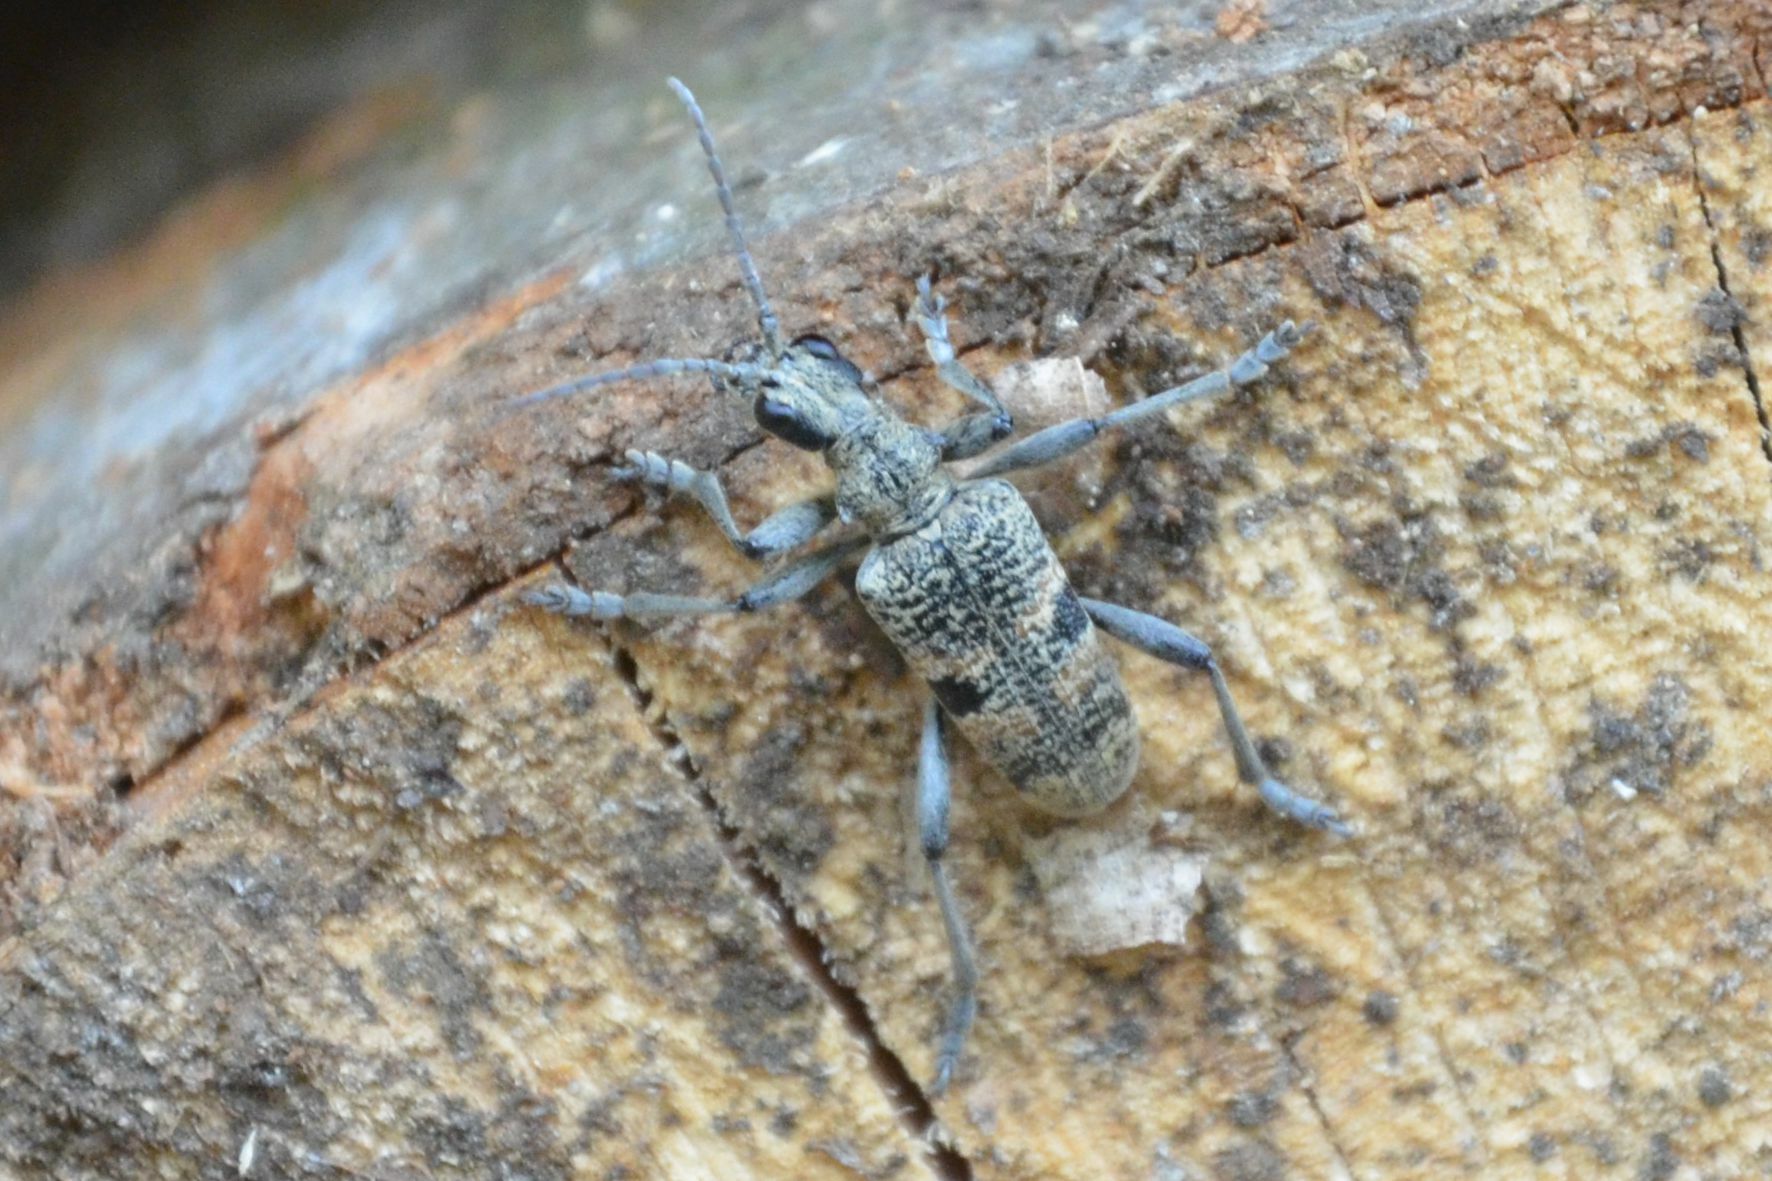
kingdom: Animalia
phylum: Arthropoda
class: Insecta
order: Coleoptera
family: Cerambycidae
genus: Rhagium
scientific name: Rhagium mordax
